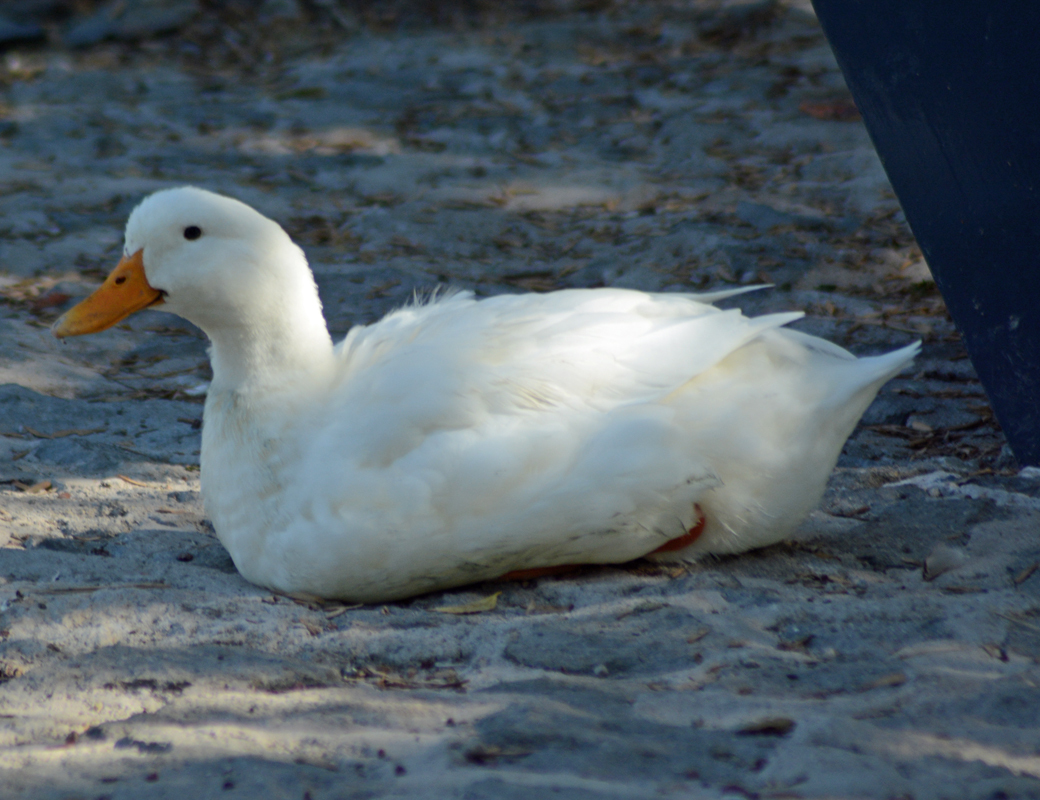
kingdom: Animalia
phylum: Chordata
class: Aves
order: Anseriformes
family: Anatidae
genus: Anas
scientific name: Anas platyrhynchos
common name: Mallard
